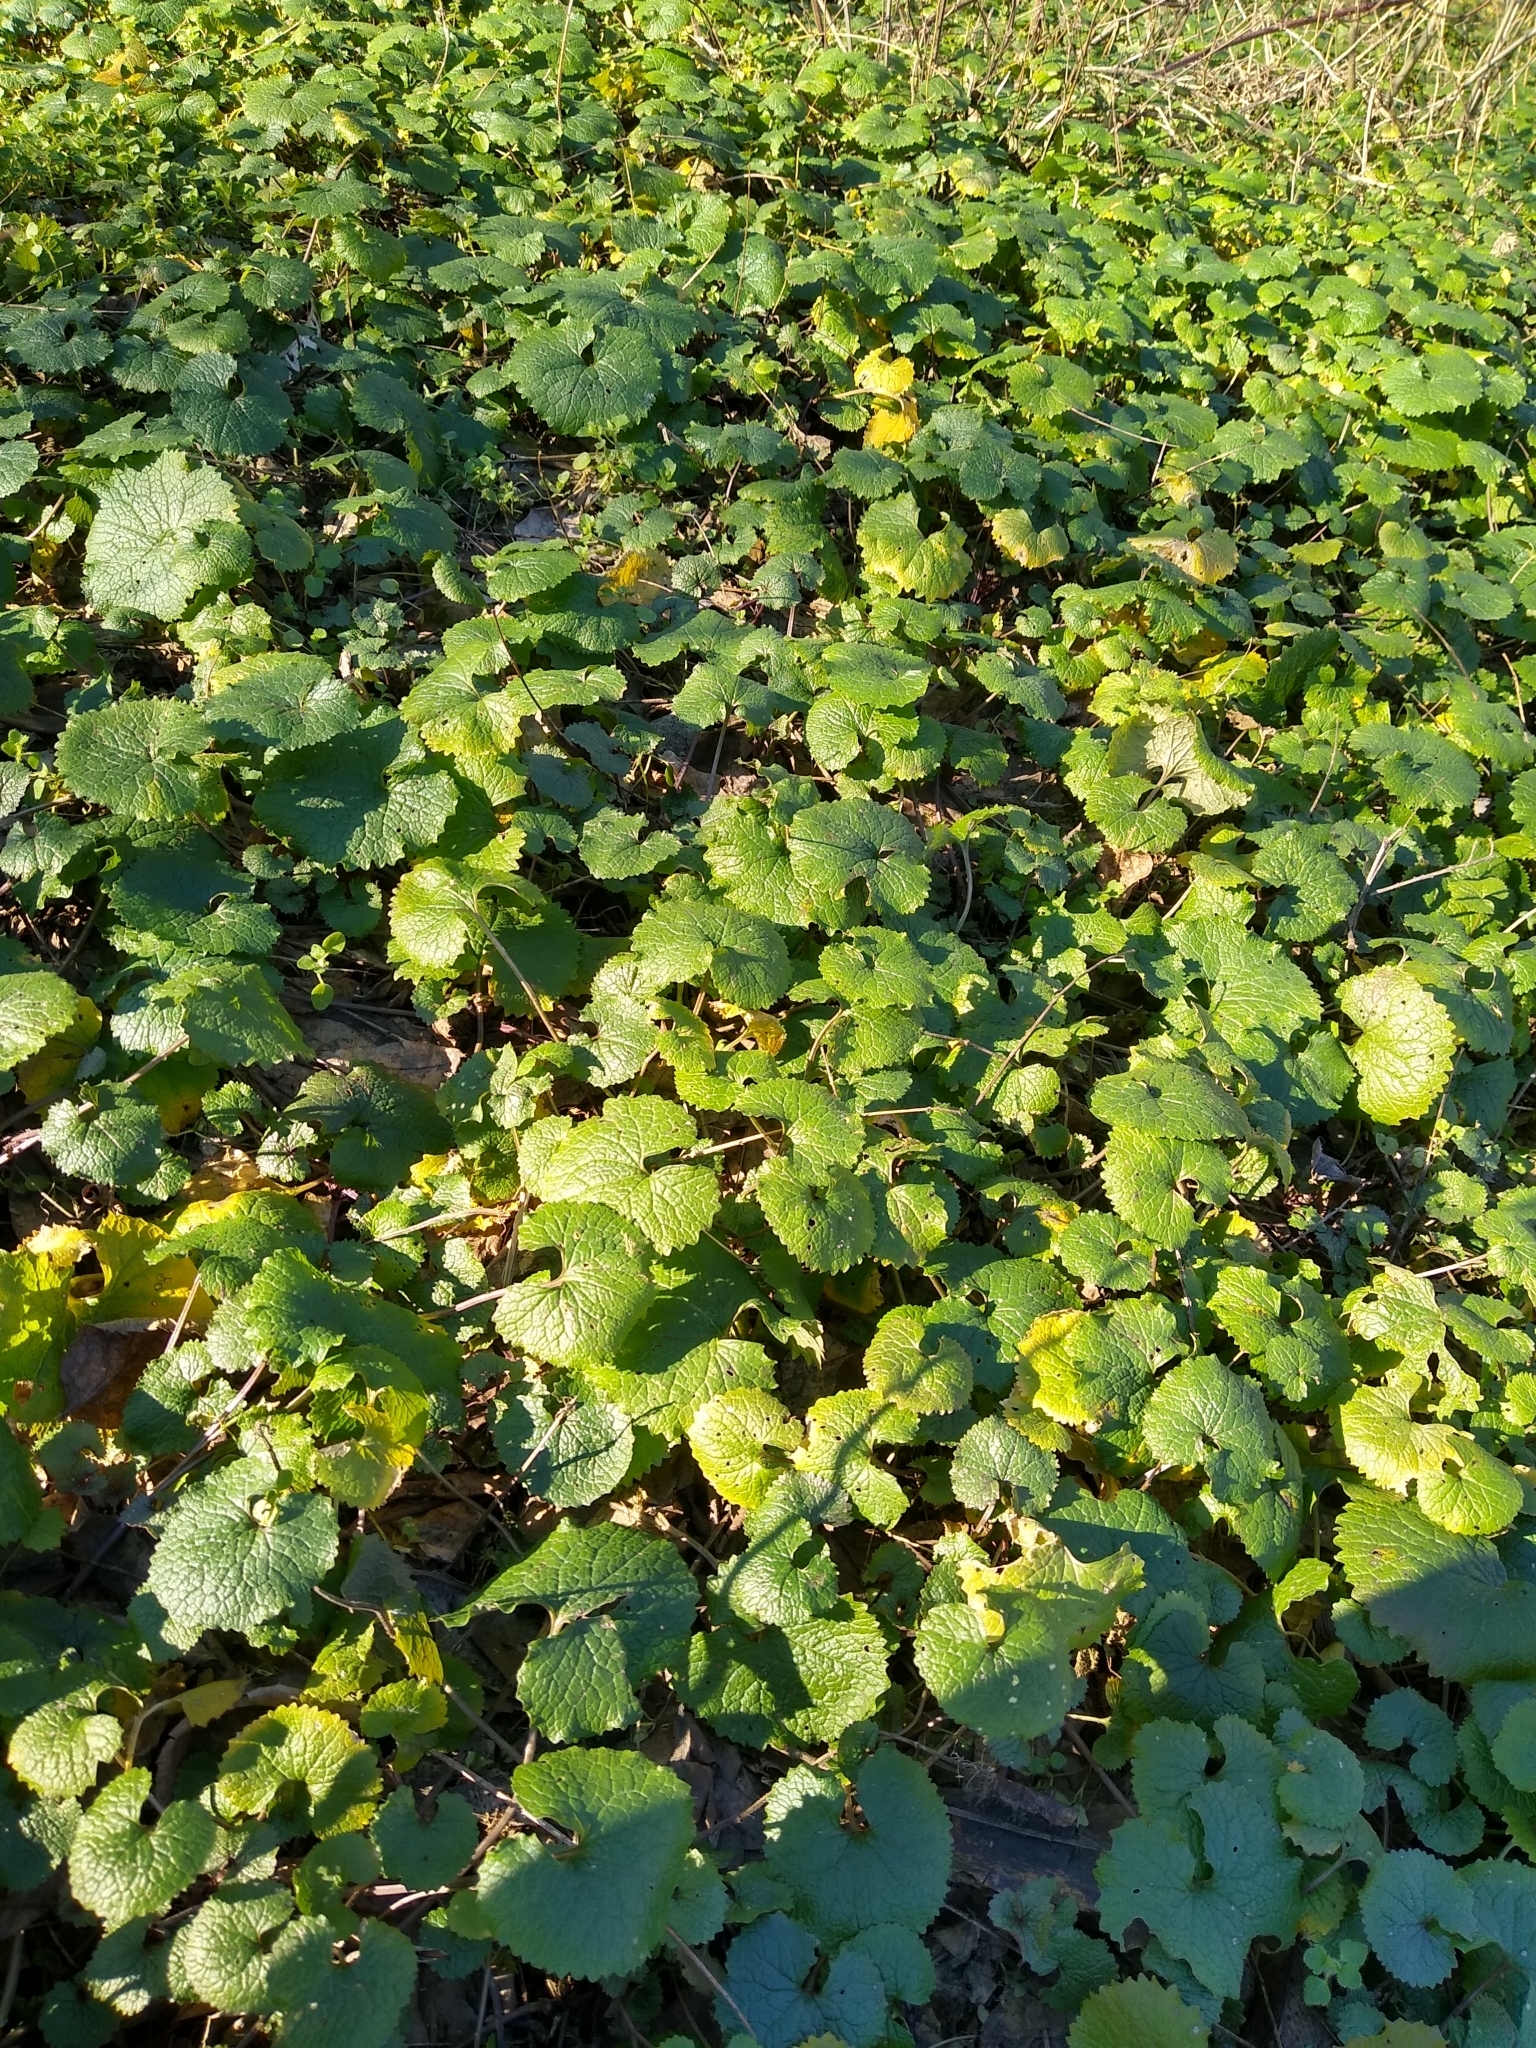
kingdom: Plantae
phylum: Tracheophyta
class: Magnoliopsida
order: Brassicales
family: Brassicaceae
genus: Alliaria
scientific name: Alliaria petiolata
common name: Garlic mustard
